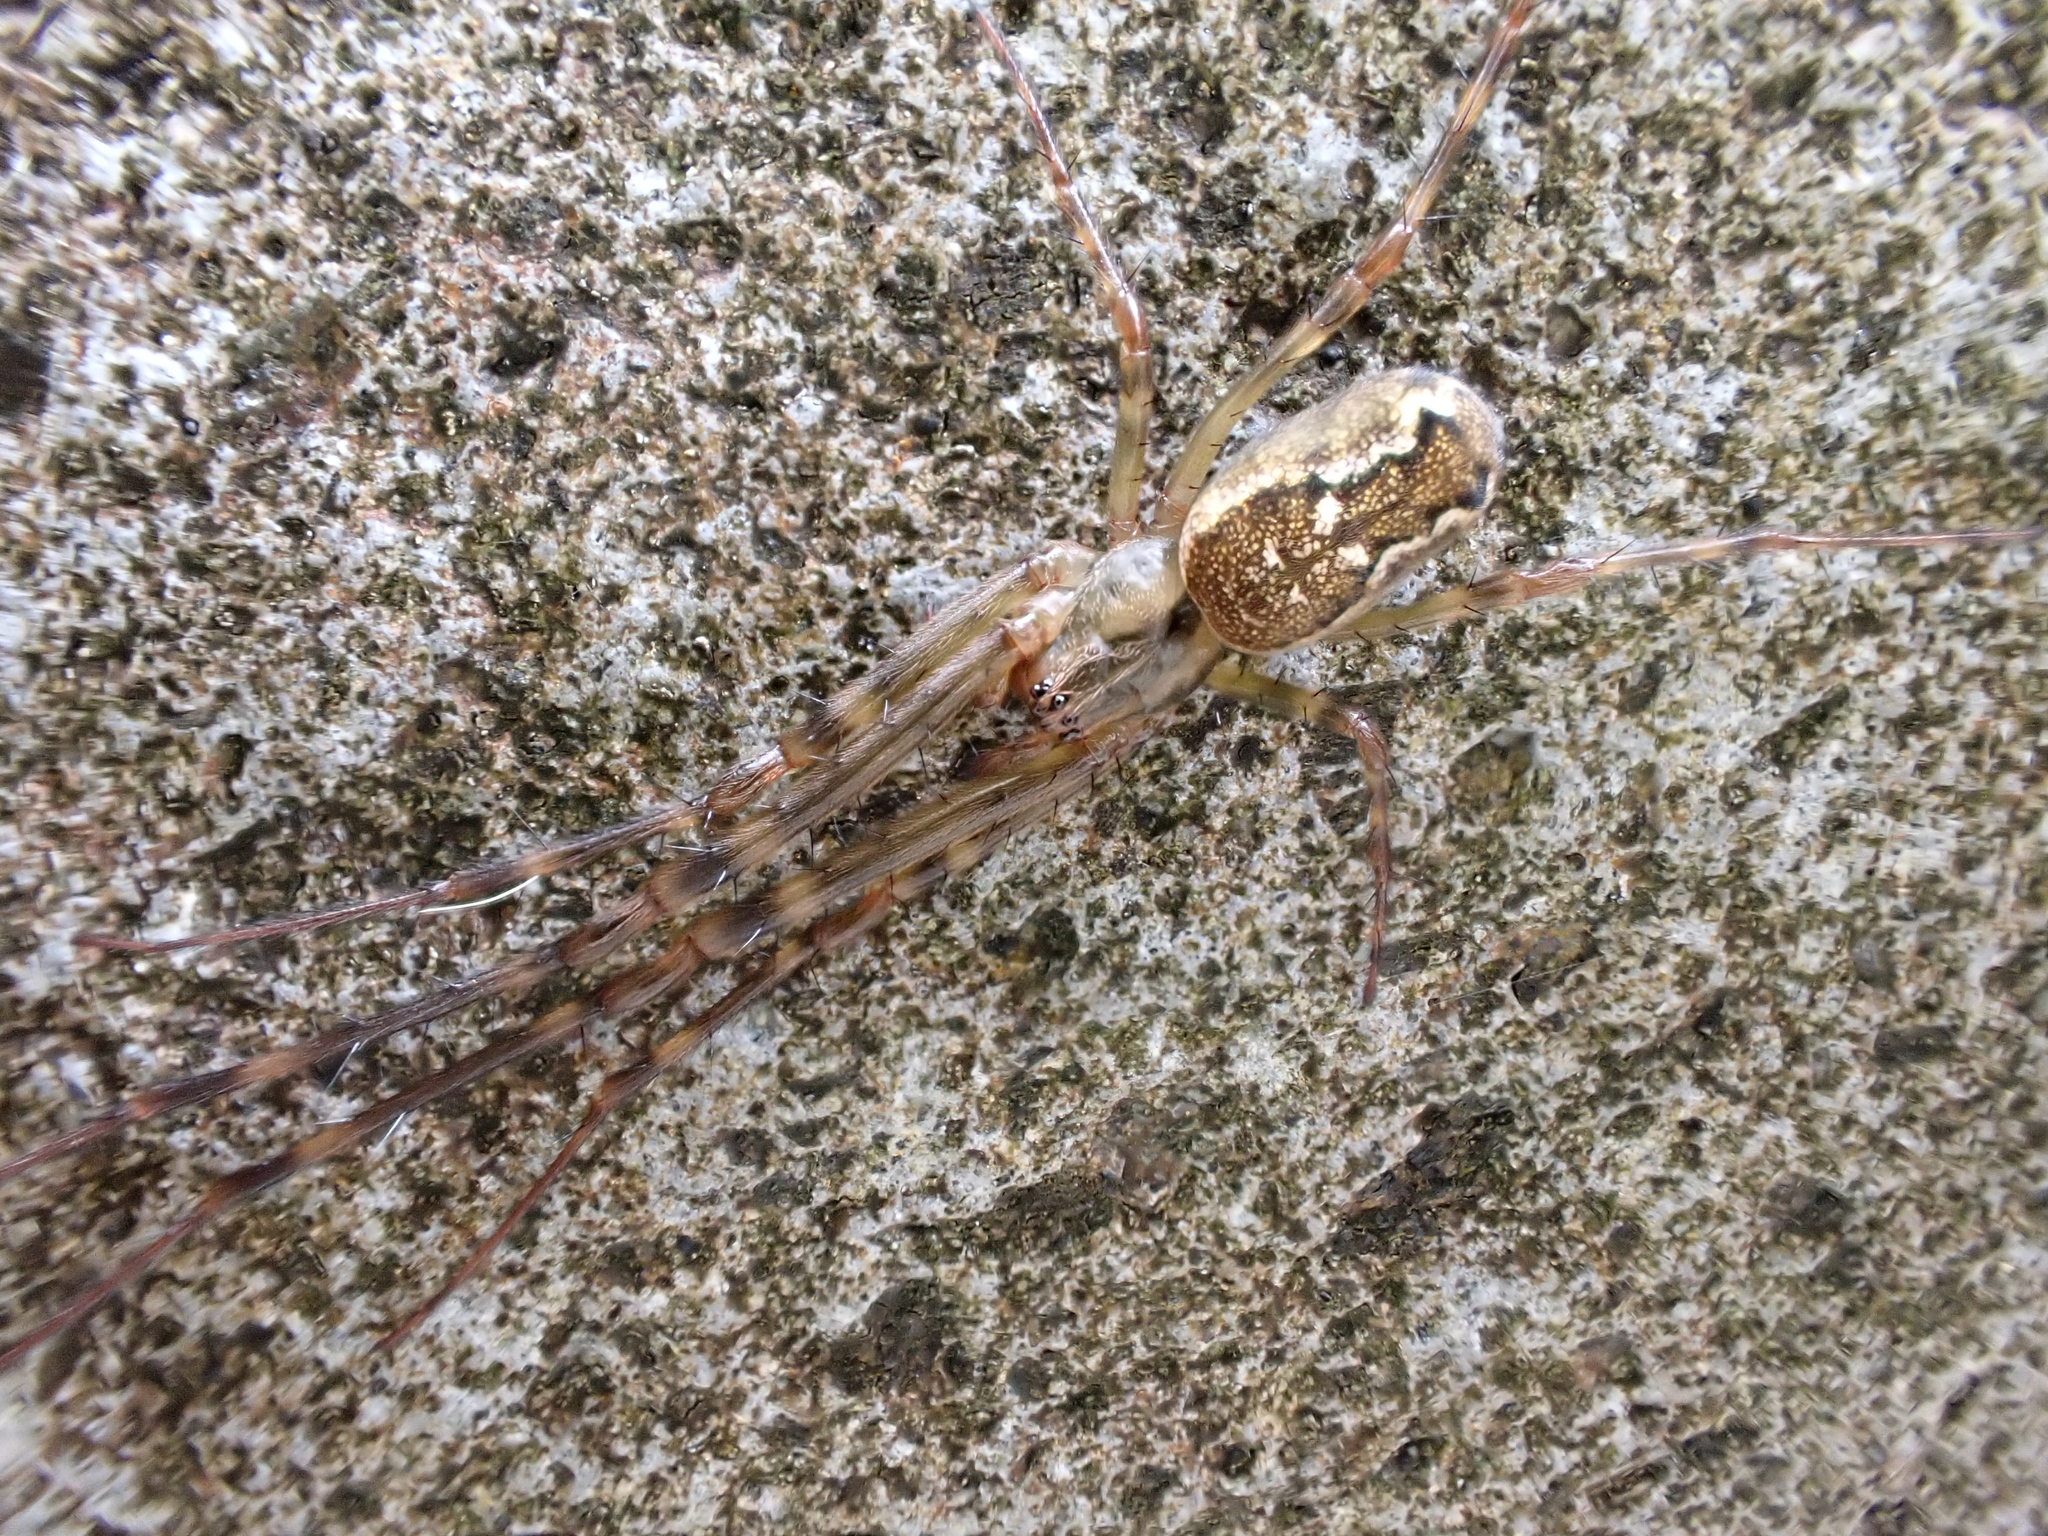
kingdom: Animalia
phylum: Arthropoda
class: Arachnida
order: Araneae
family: Tetragnathidae
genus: Nanometa
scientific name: Nanometa lagenifera
